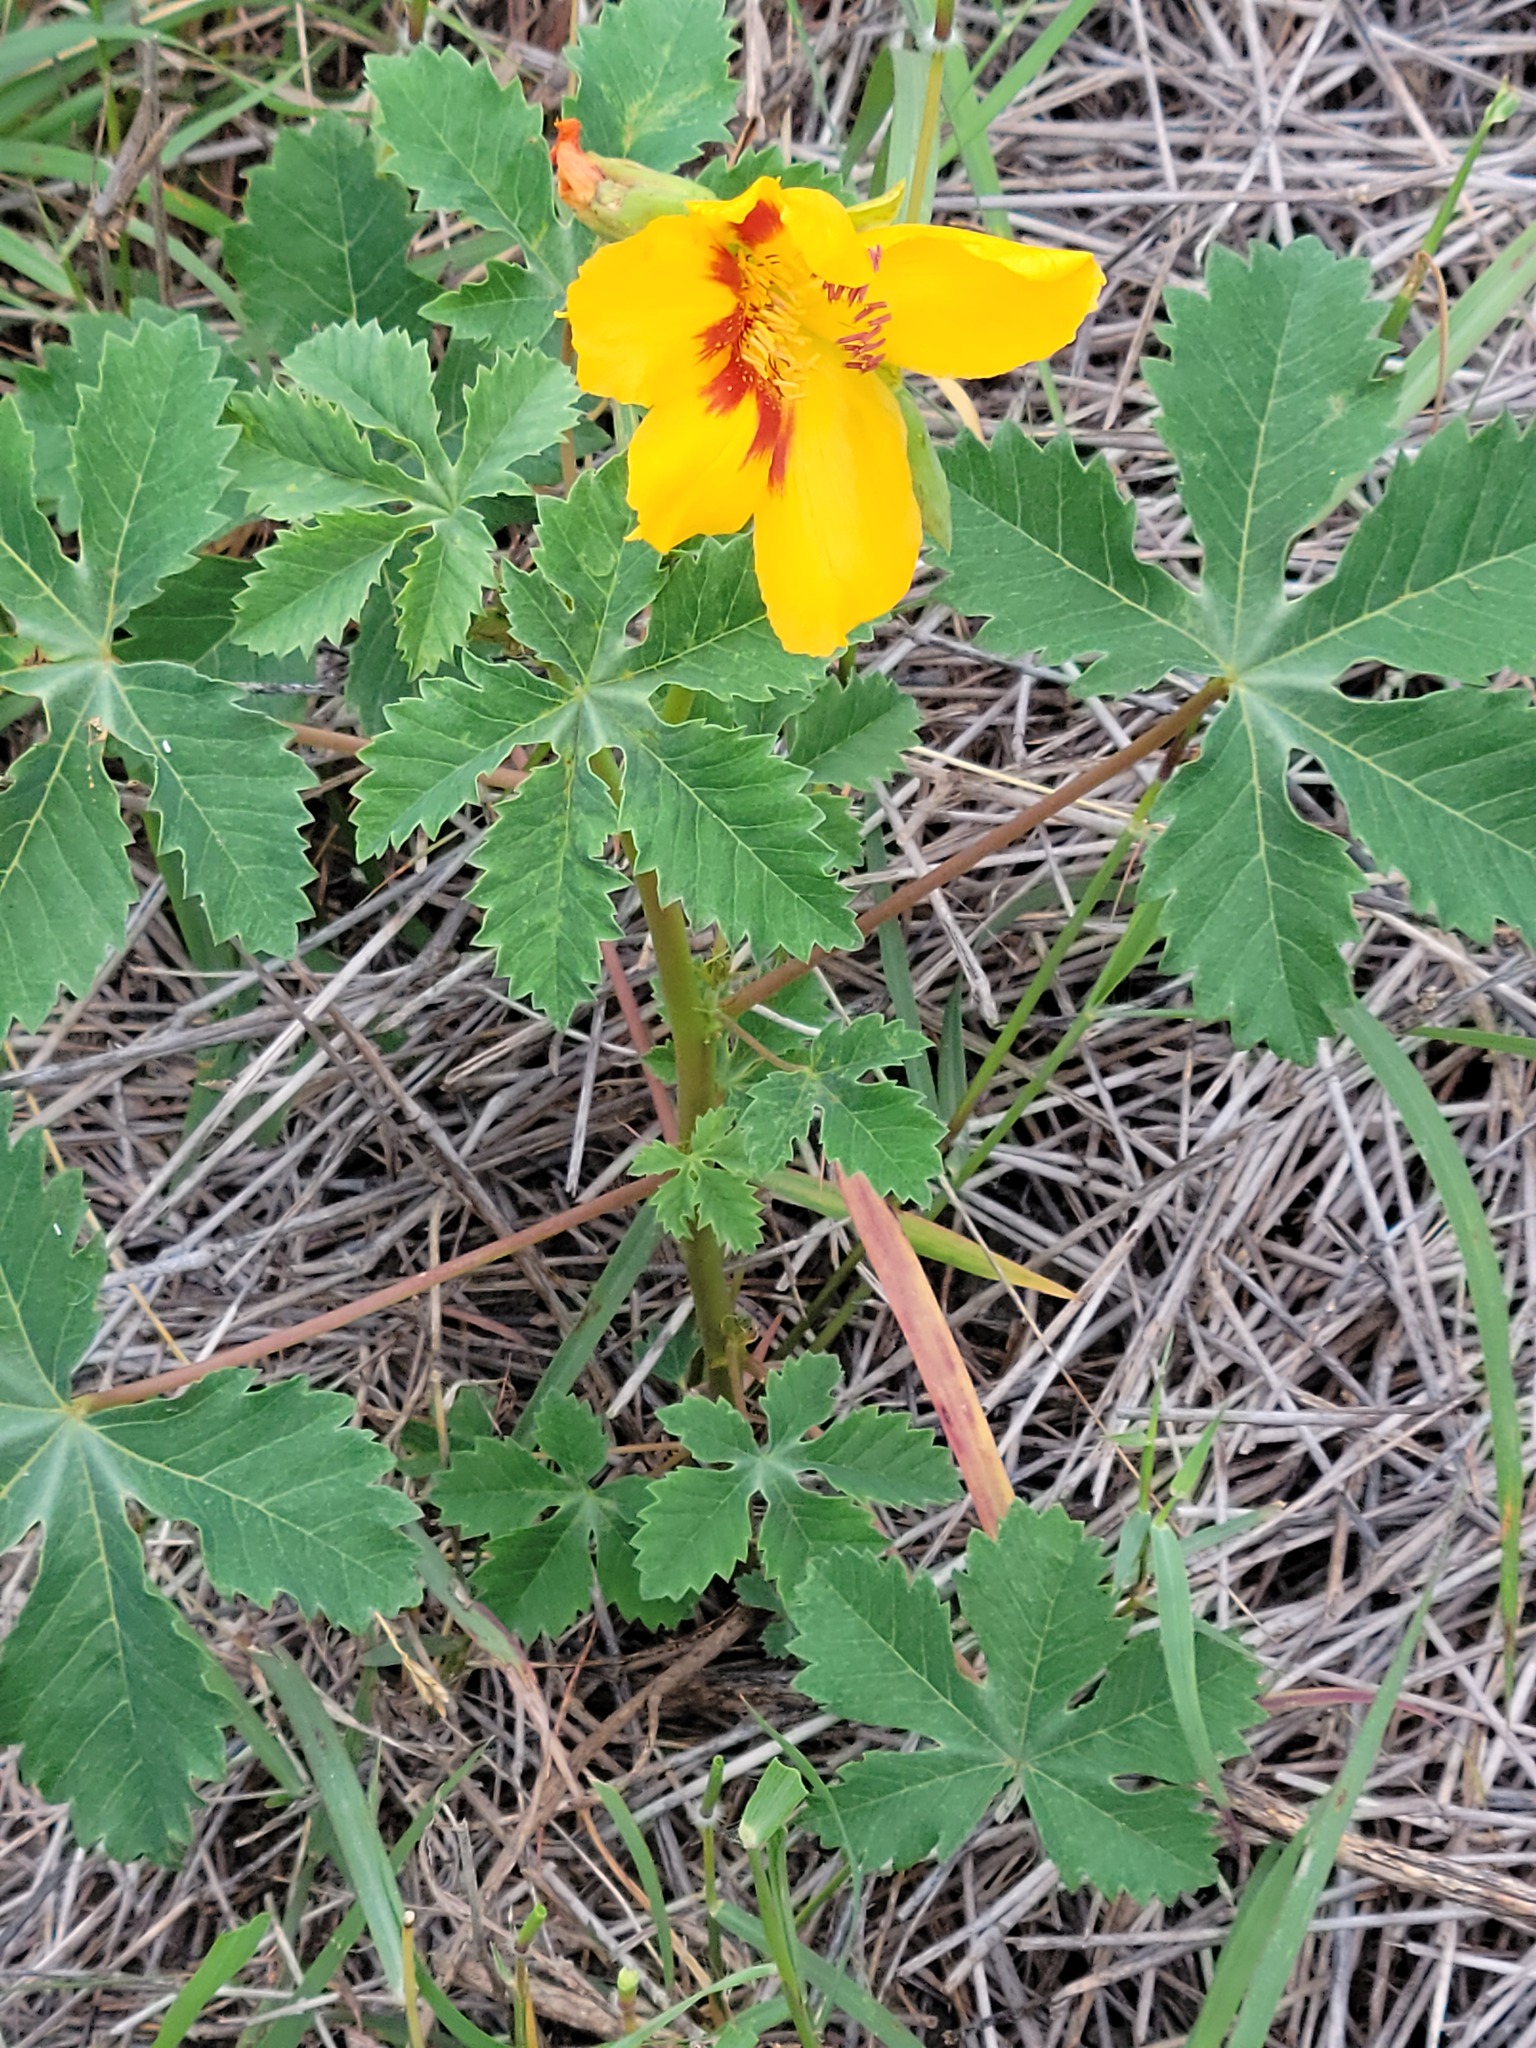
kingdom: Plantae
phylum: Tracheophyta
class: Magnoliopsida
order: Malvales
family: Cochlospermaceae
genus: Cochlospermum
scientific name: Cochlospermum wrightii
